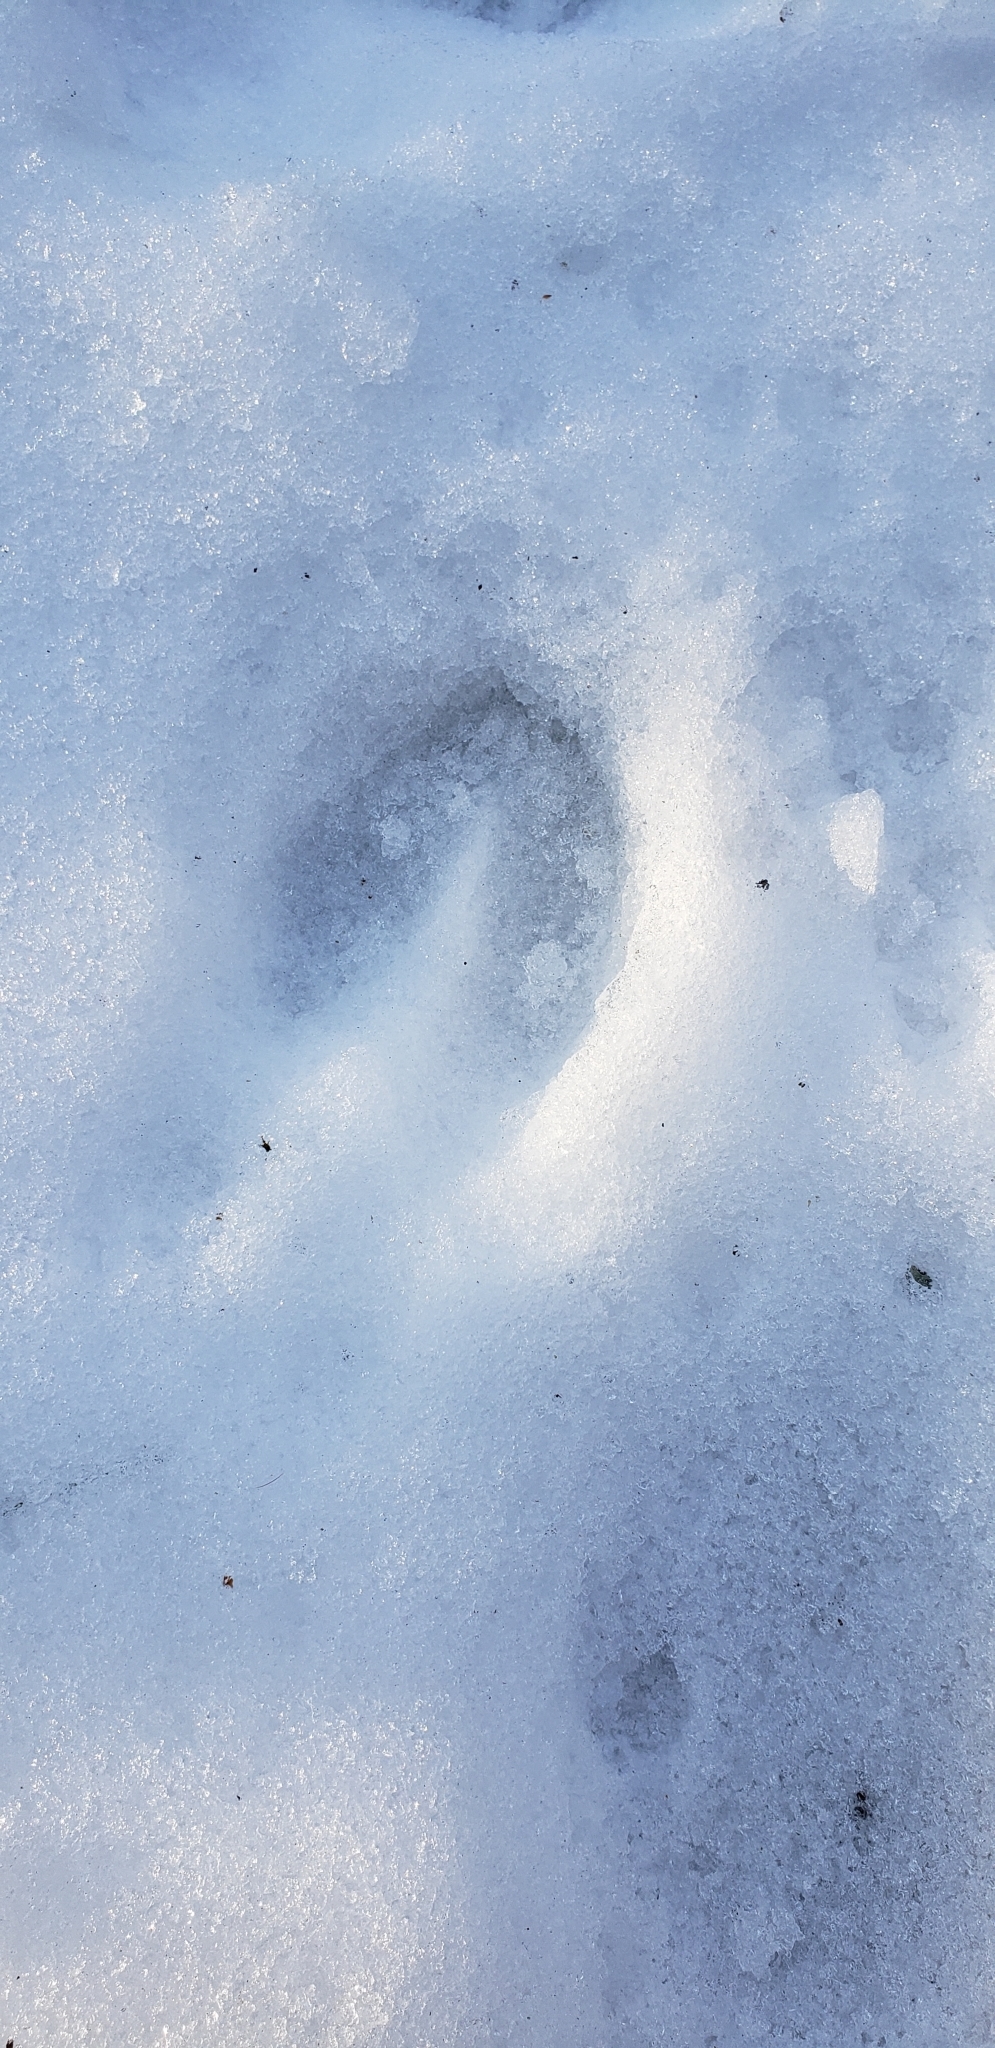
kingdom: Animalia
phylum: Chordata
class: Mammalia
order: Artiodactyla
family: Cervidae
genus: Odocoileus
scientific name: Odocoileus virginianus
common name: White-tailed deer
